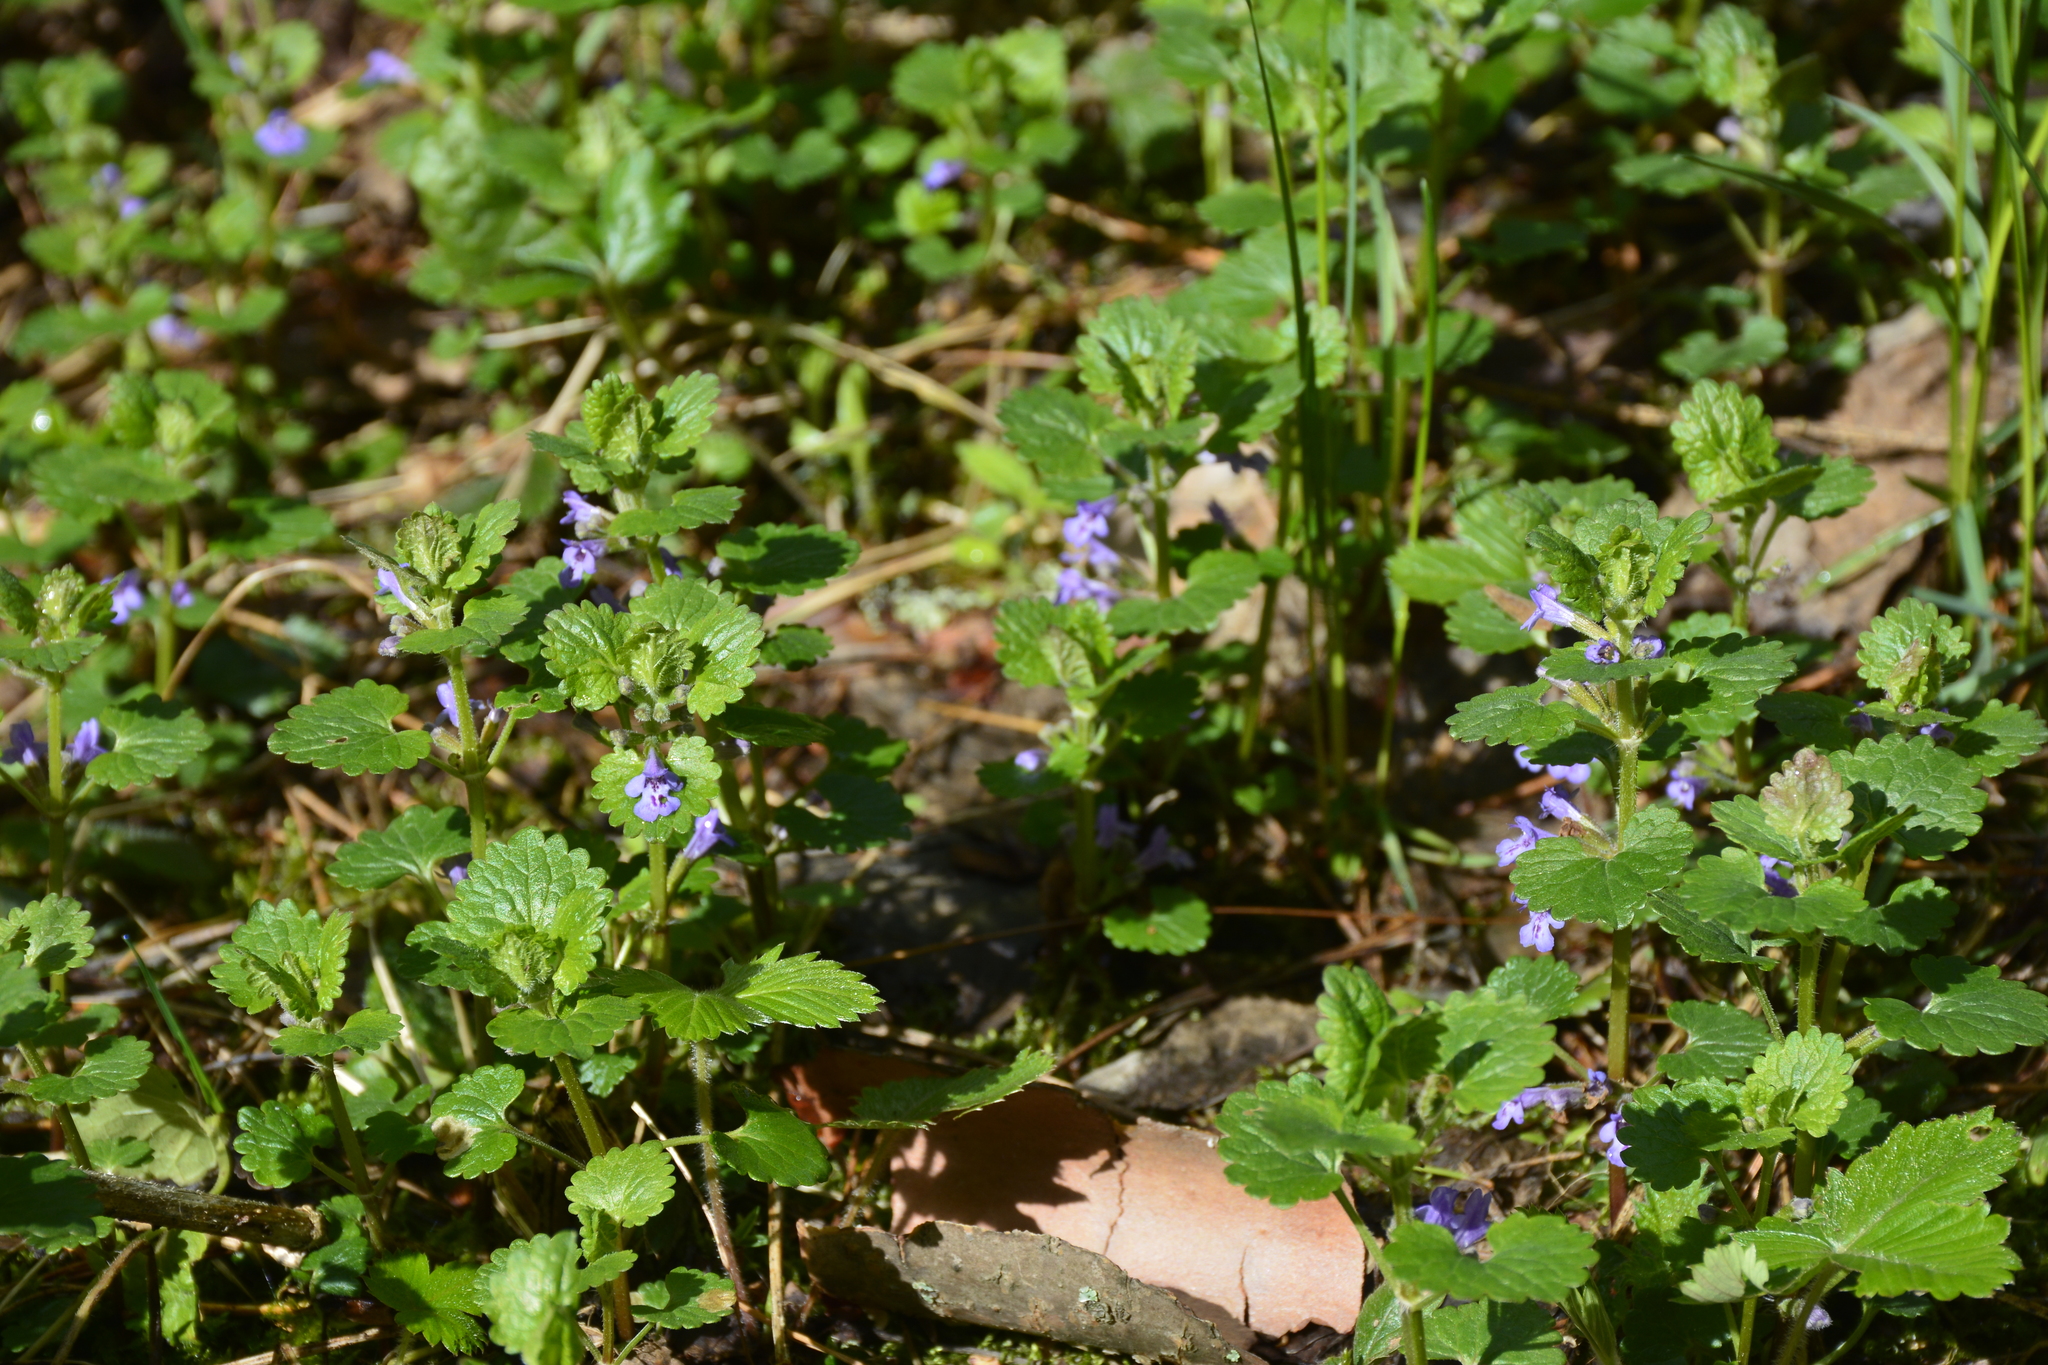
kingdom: Plantae
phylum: Tracheophyta
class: Magnoliopsida
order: Lamiales
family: Lamiaceae
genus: Glechoma
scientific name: Glechoma hederacea
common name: Ground ivy
